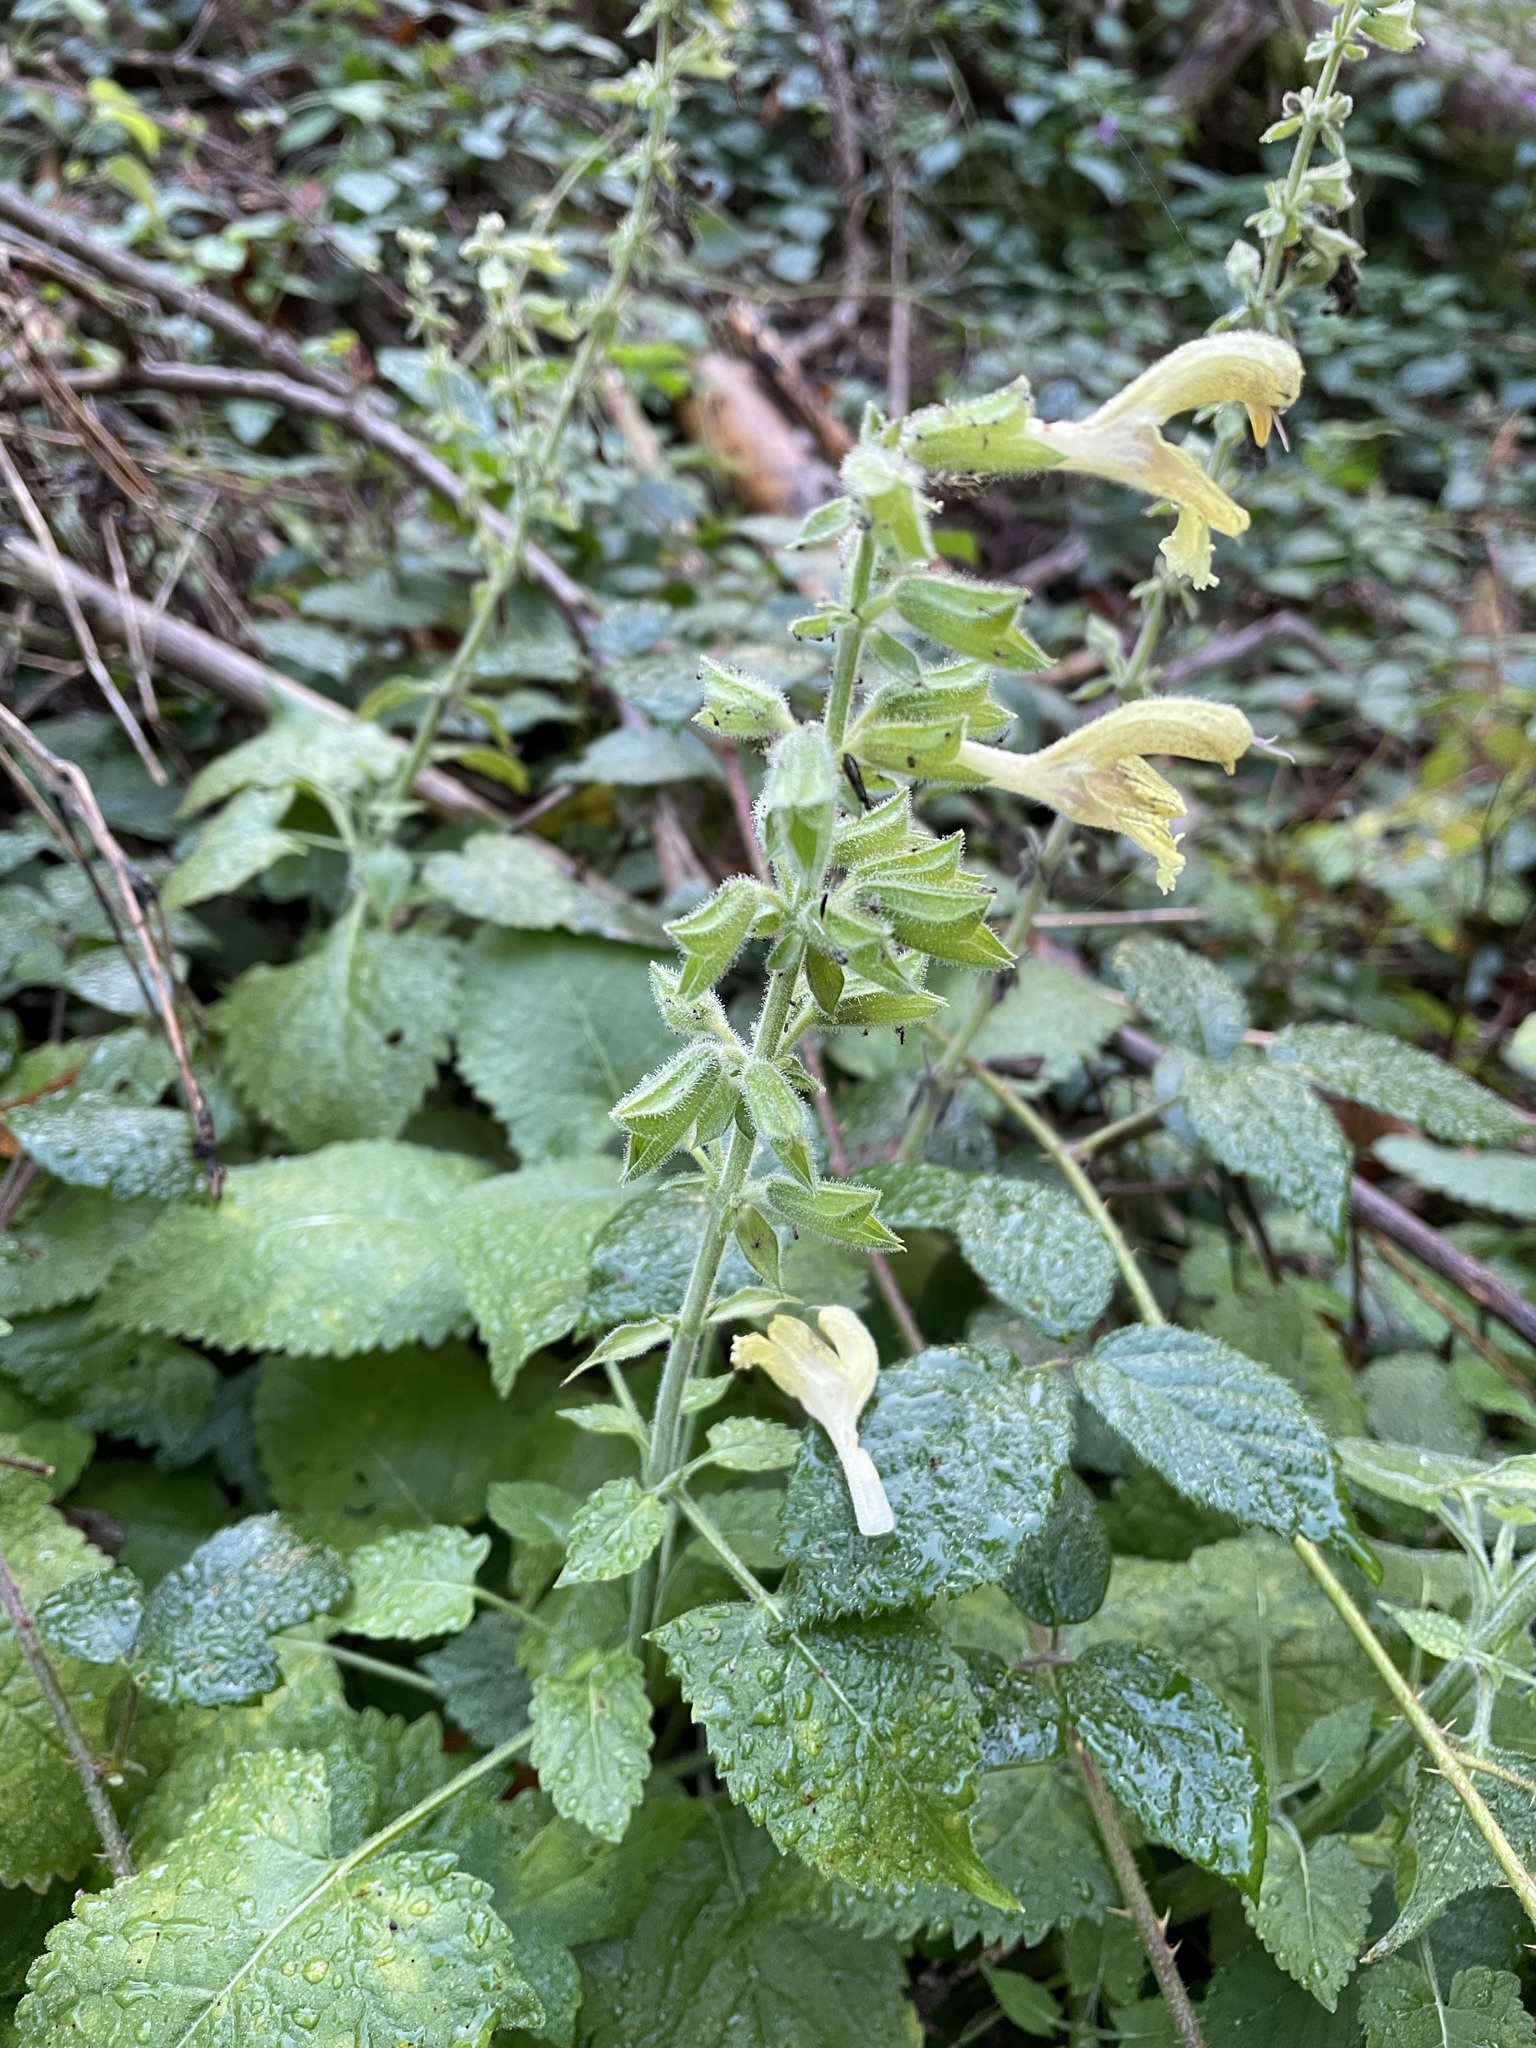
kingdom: Plantae
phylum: Tracheophyta
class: Magnoliopsida
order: Lamiales
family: Lamiaceae
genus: Salvia
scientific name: Salvia glutinosa
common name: Sticky clary
